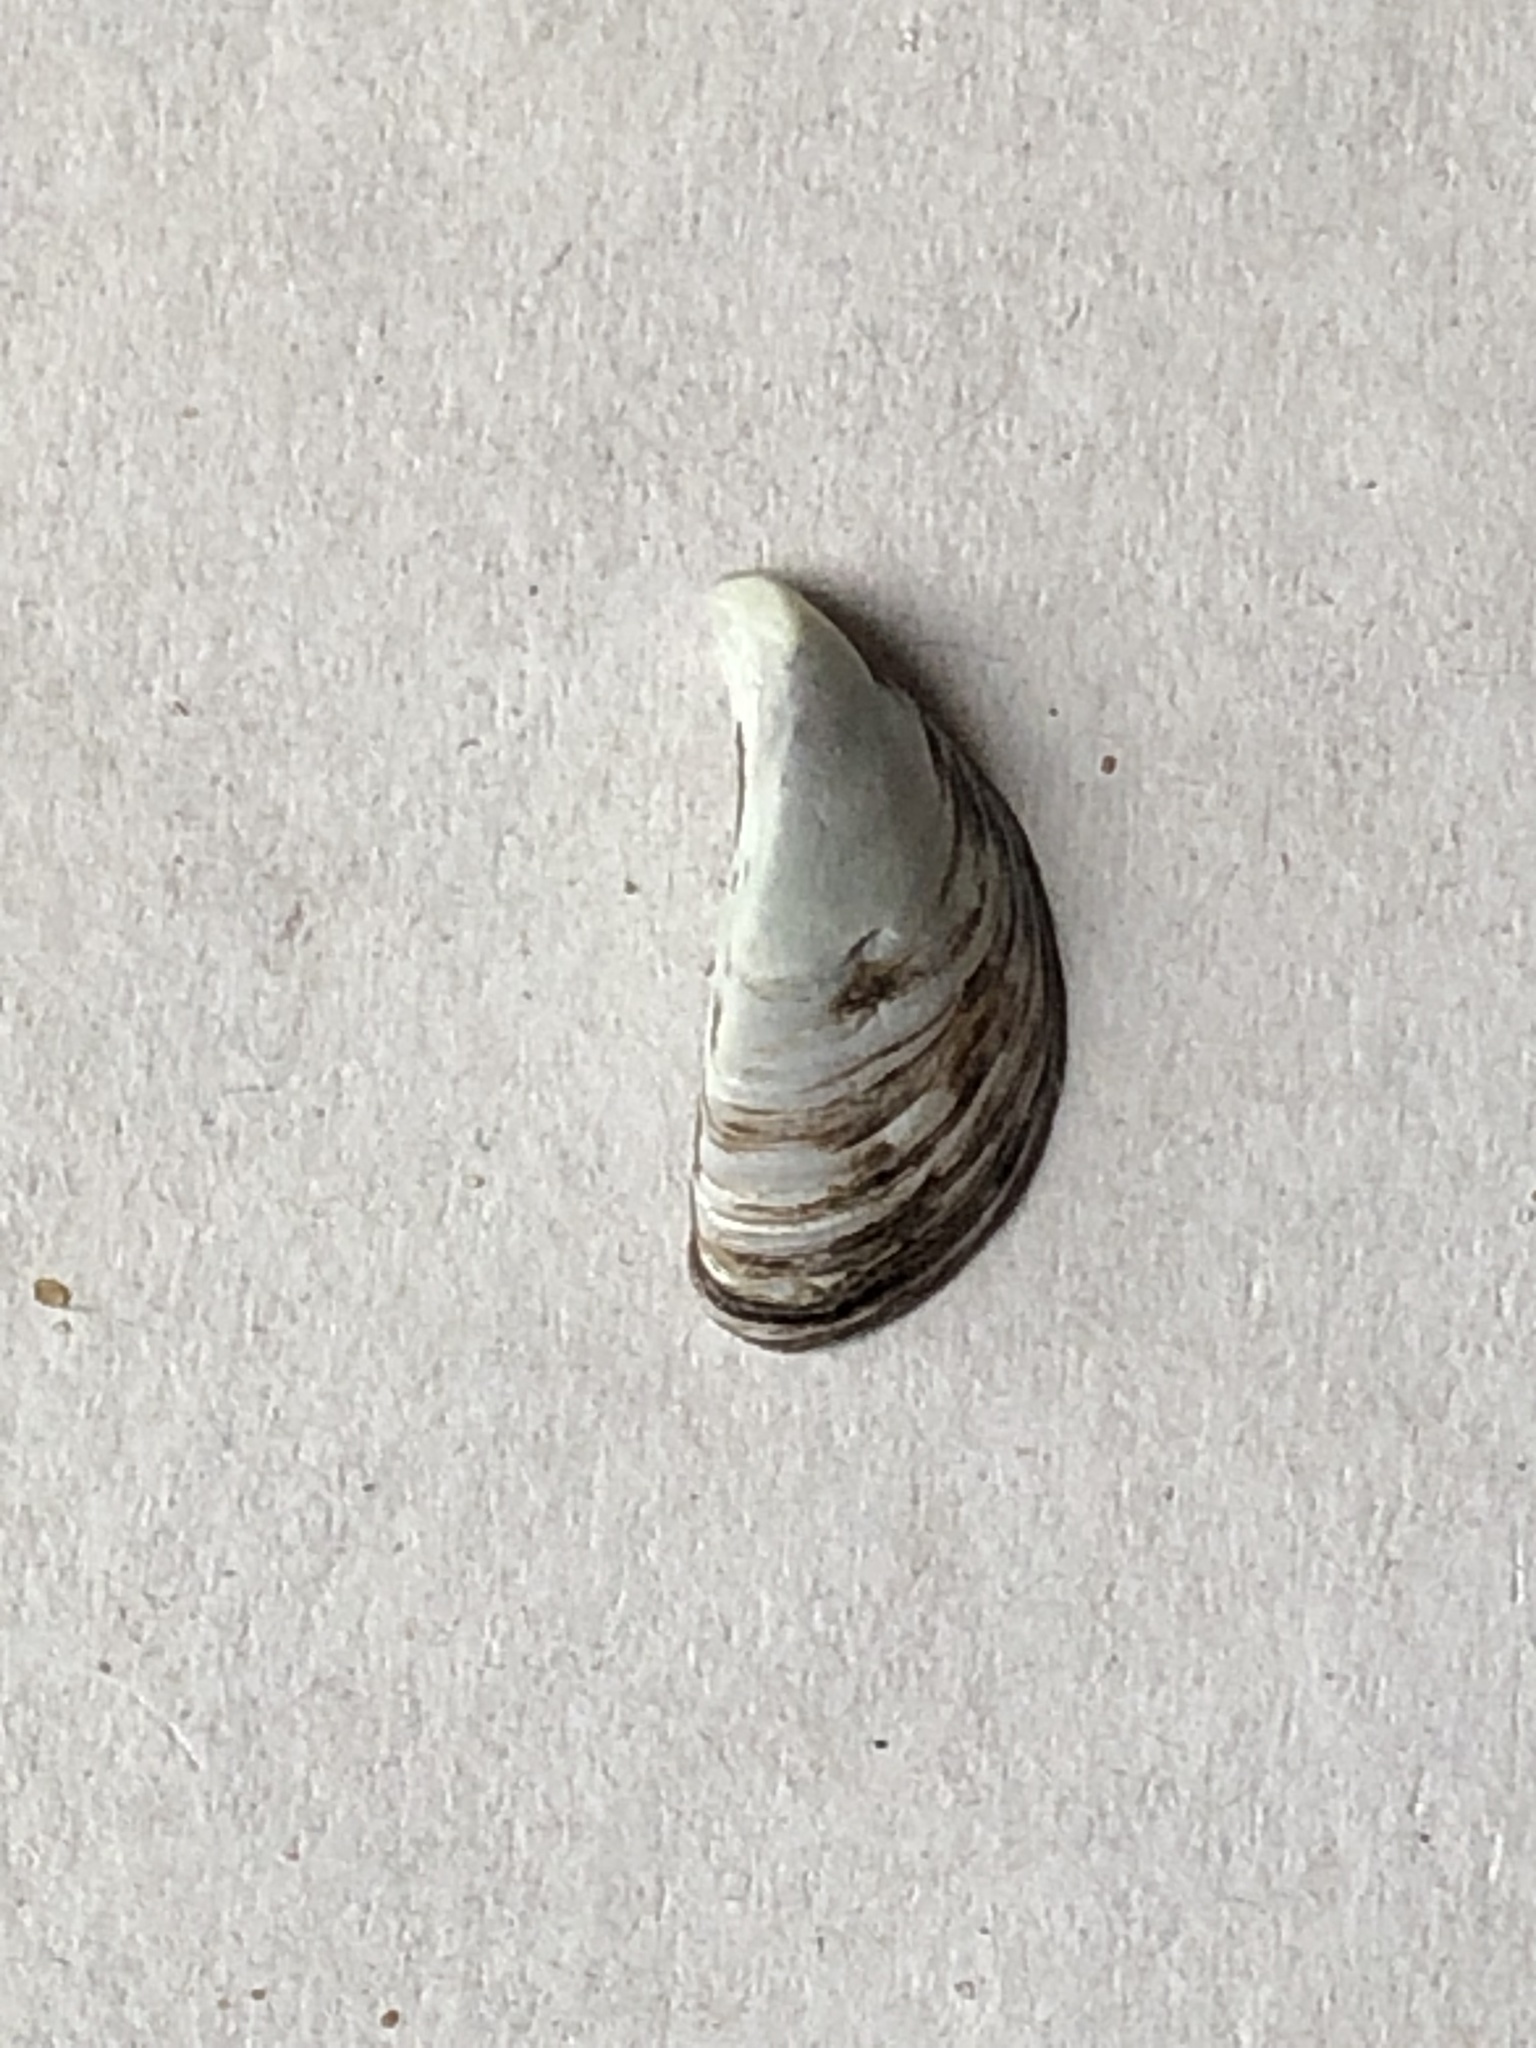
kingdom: Animalia
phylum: Mollusca
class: Bivalvia
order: Myida
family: Dreissenidae
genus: Dreissena
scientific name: Dreissena polymorpha
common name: Zebra mussel
